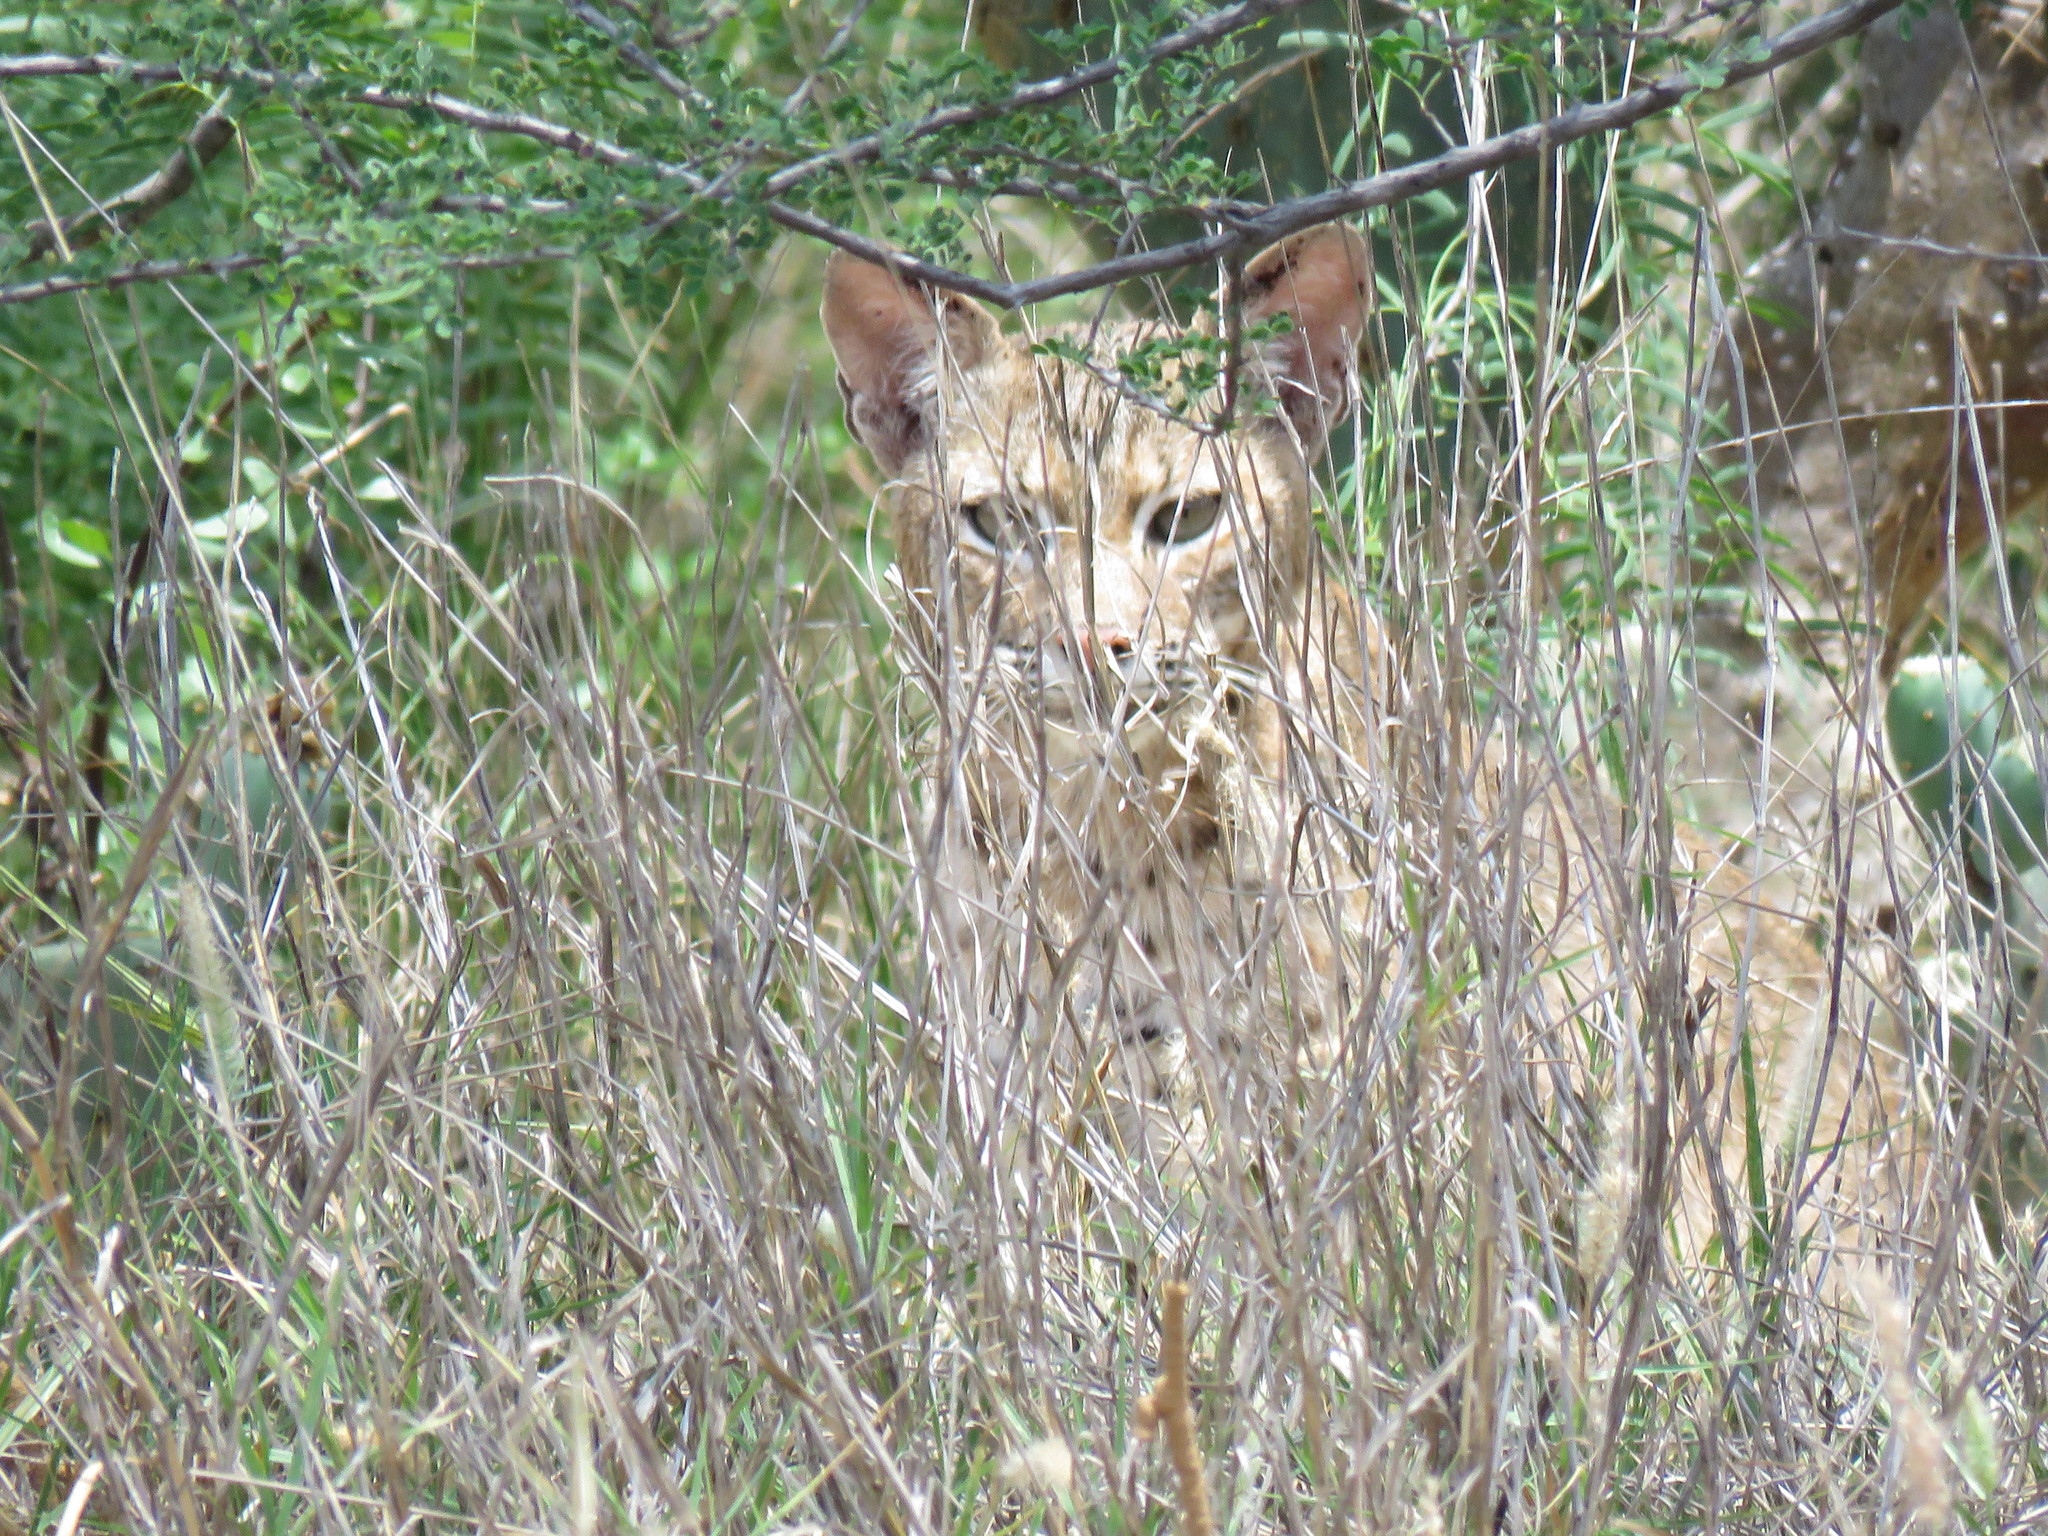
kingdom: Animalia
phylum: Chordata
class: Mammalia
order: Carnivora
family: Felidae
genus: Lynx
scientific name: Lynx rufus
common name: Bobcat
